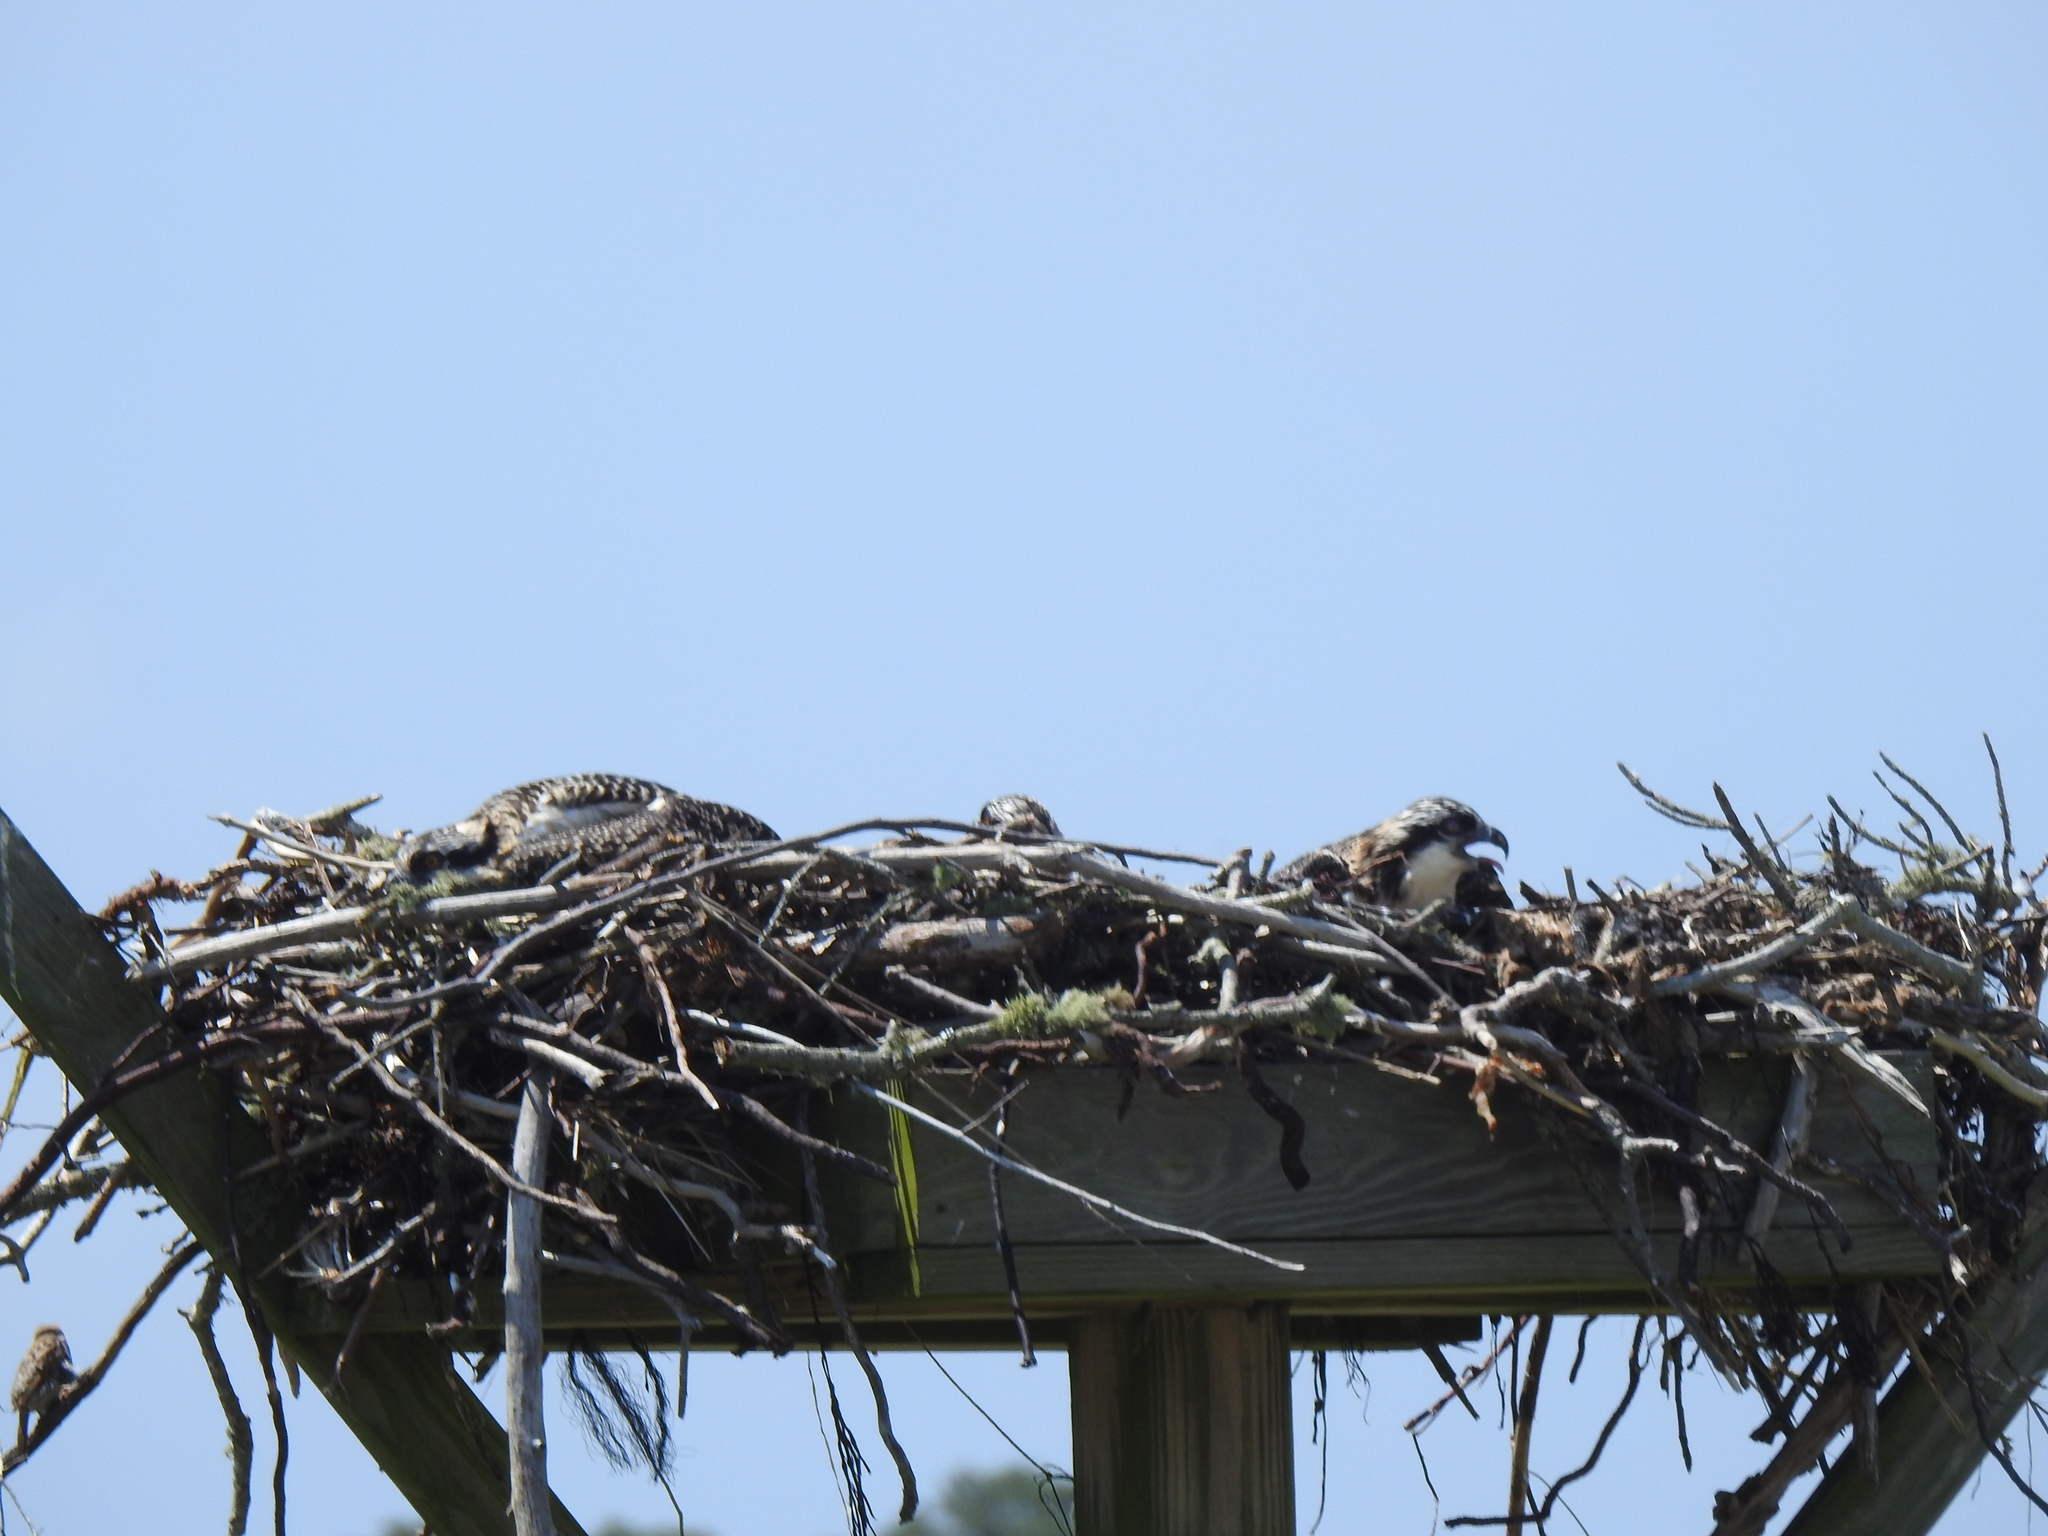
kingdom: Animalia
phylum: Chordata
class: Aves
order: Accipitriformes
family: Pandionidae
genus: Pandion
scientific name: Pandion haliaetus
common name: Osprey
